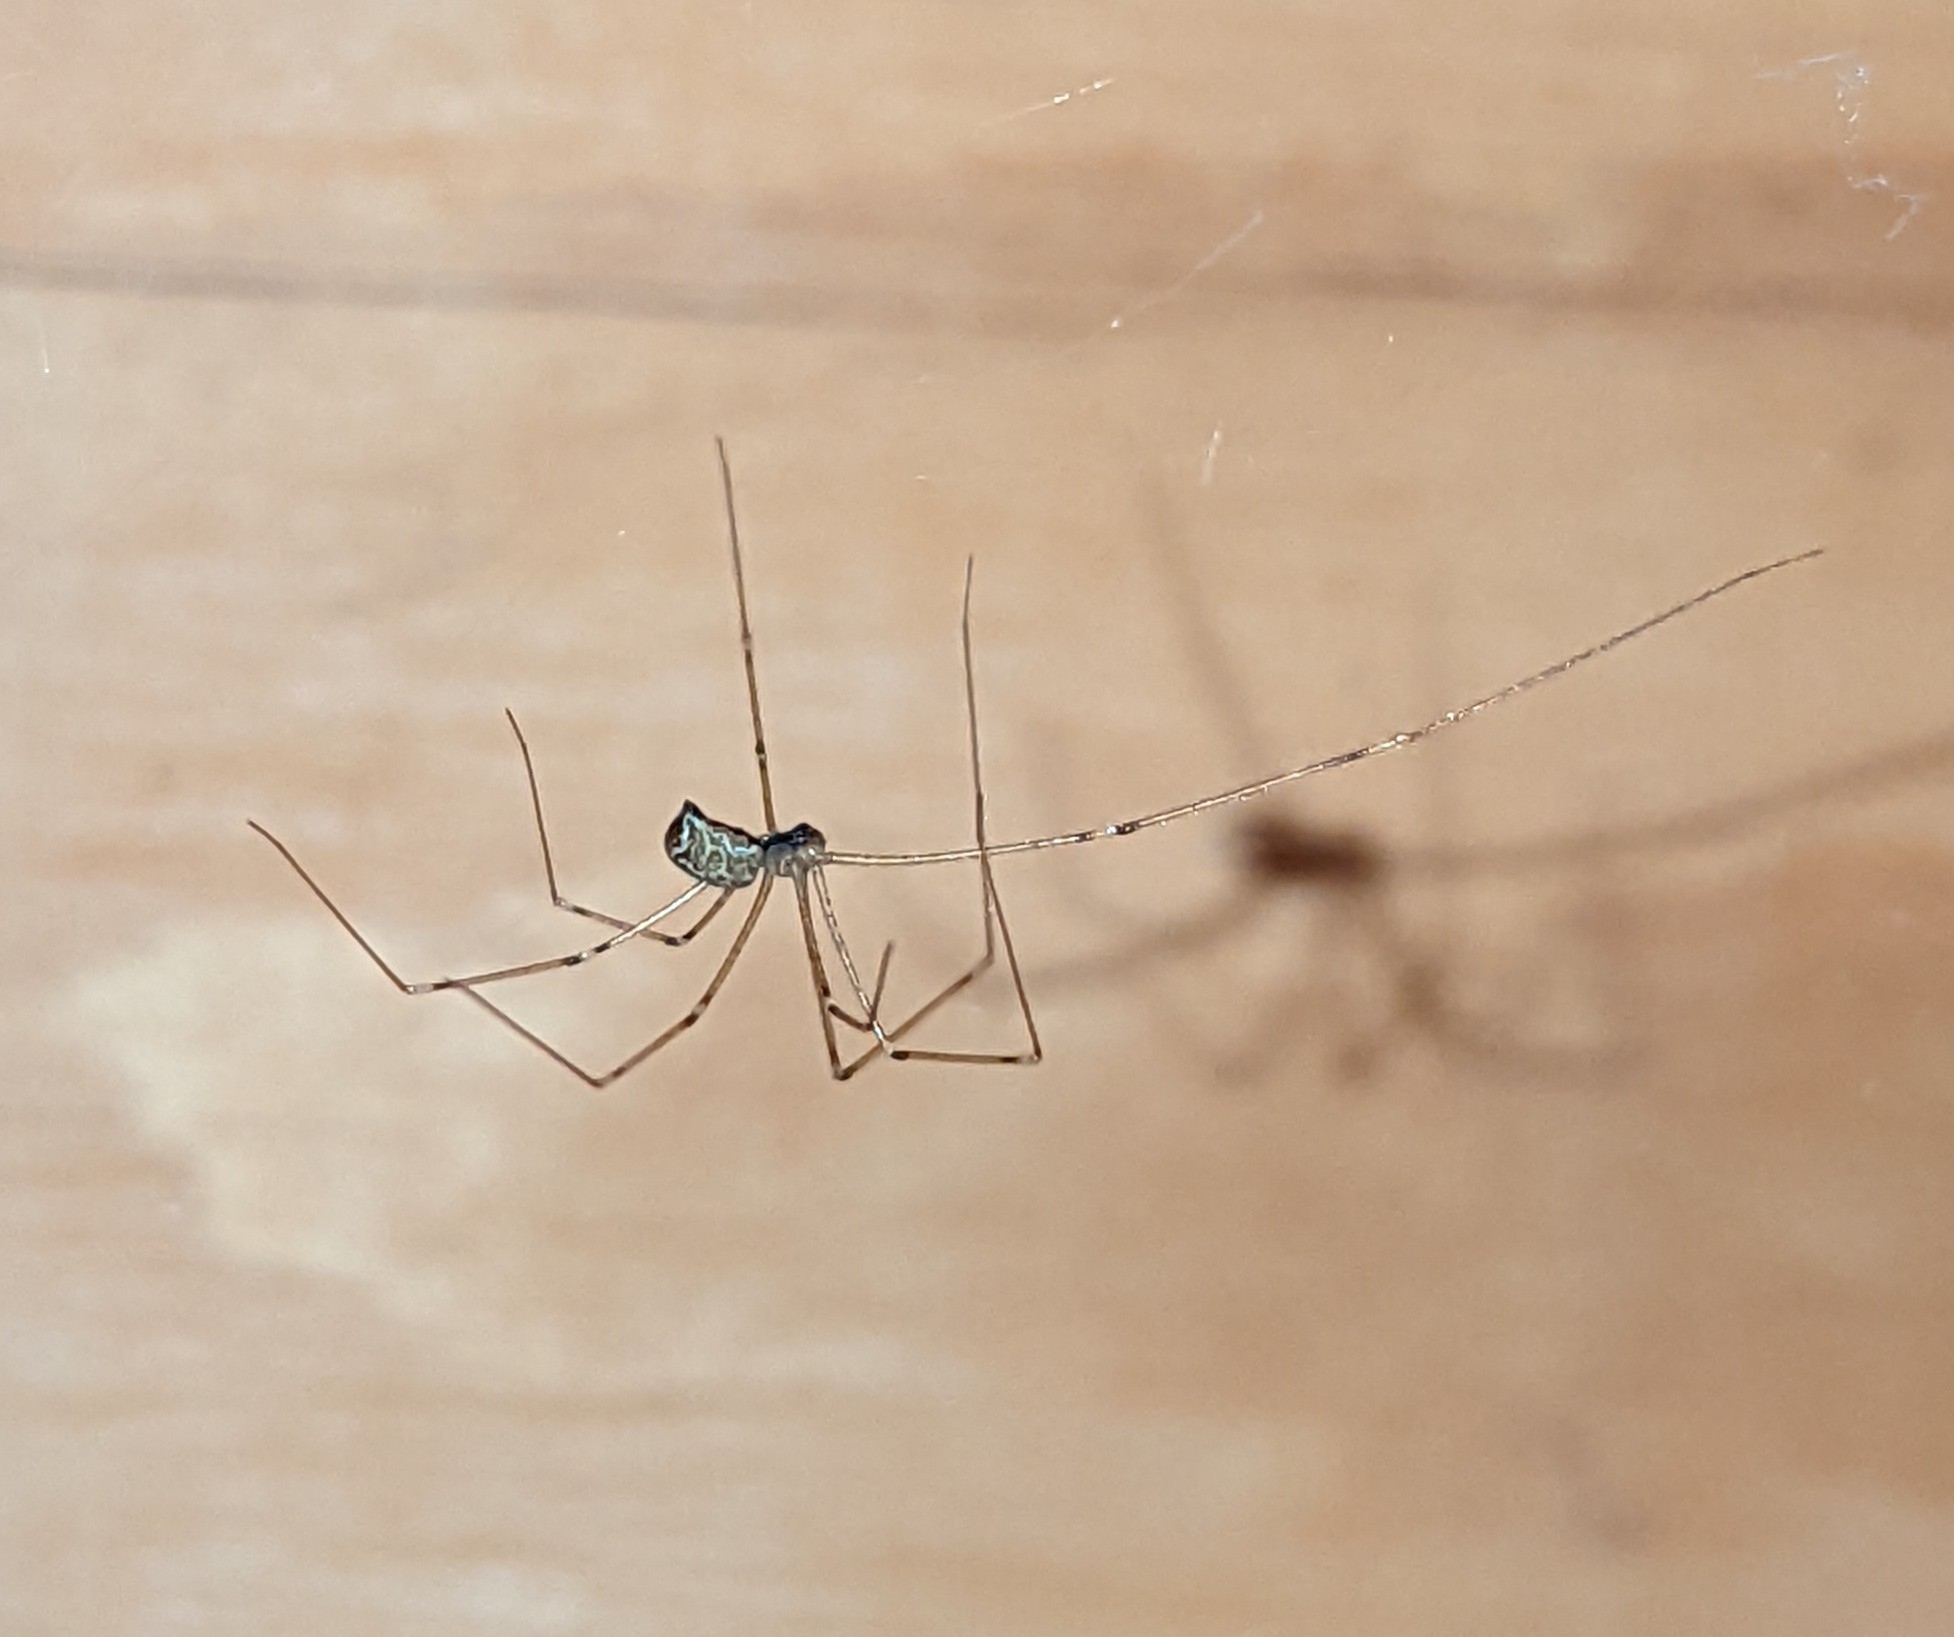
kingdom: Animalia
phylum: Arthropoda
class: Arachnida
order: Araneae
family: Pholcidae
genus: Holocnemus
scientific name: Holocnemus pluchei
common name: Marbled cellar spider
